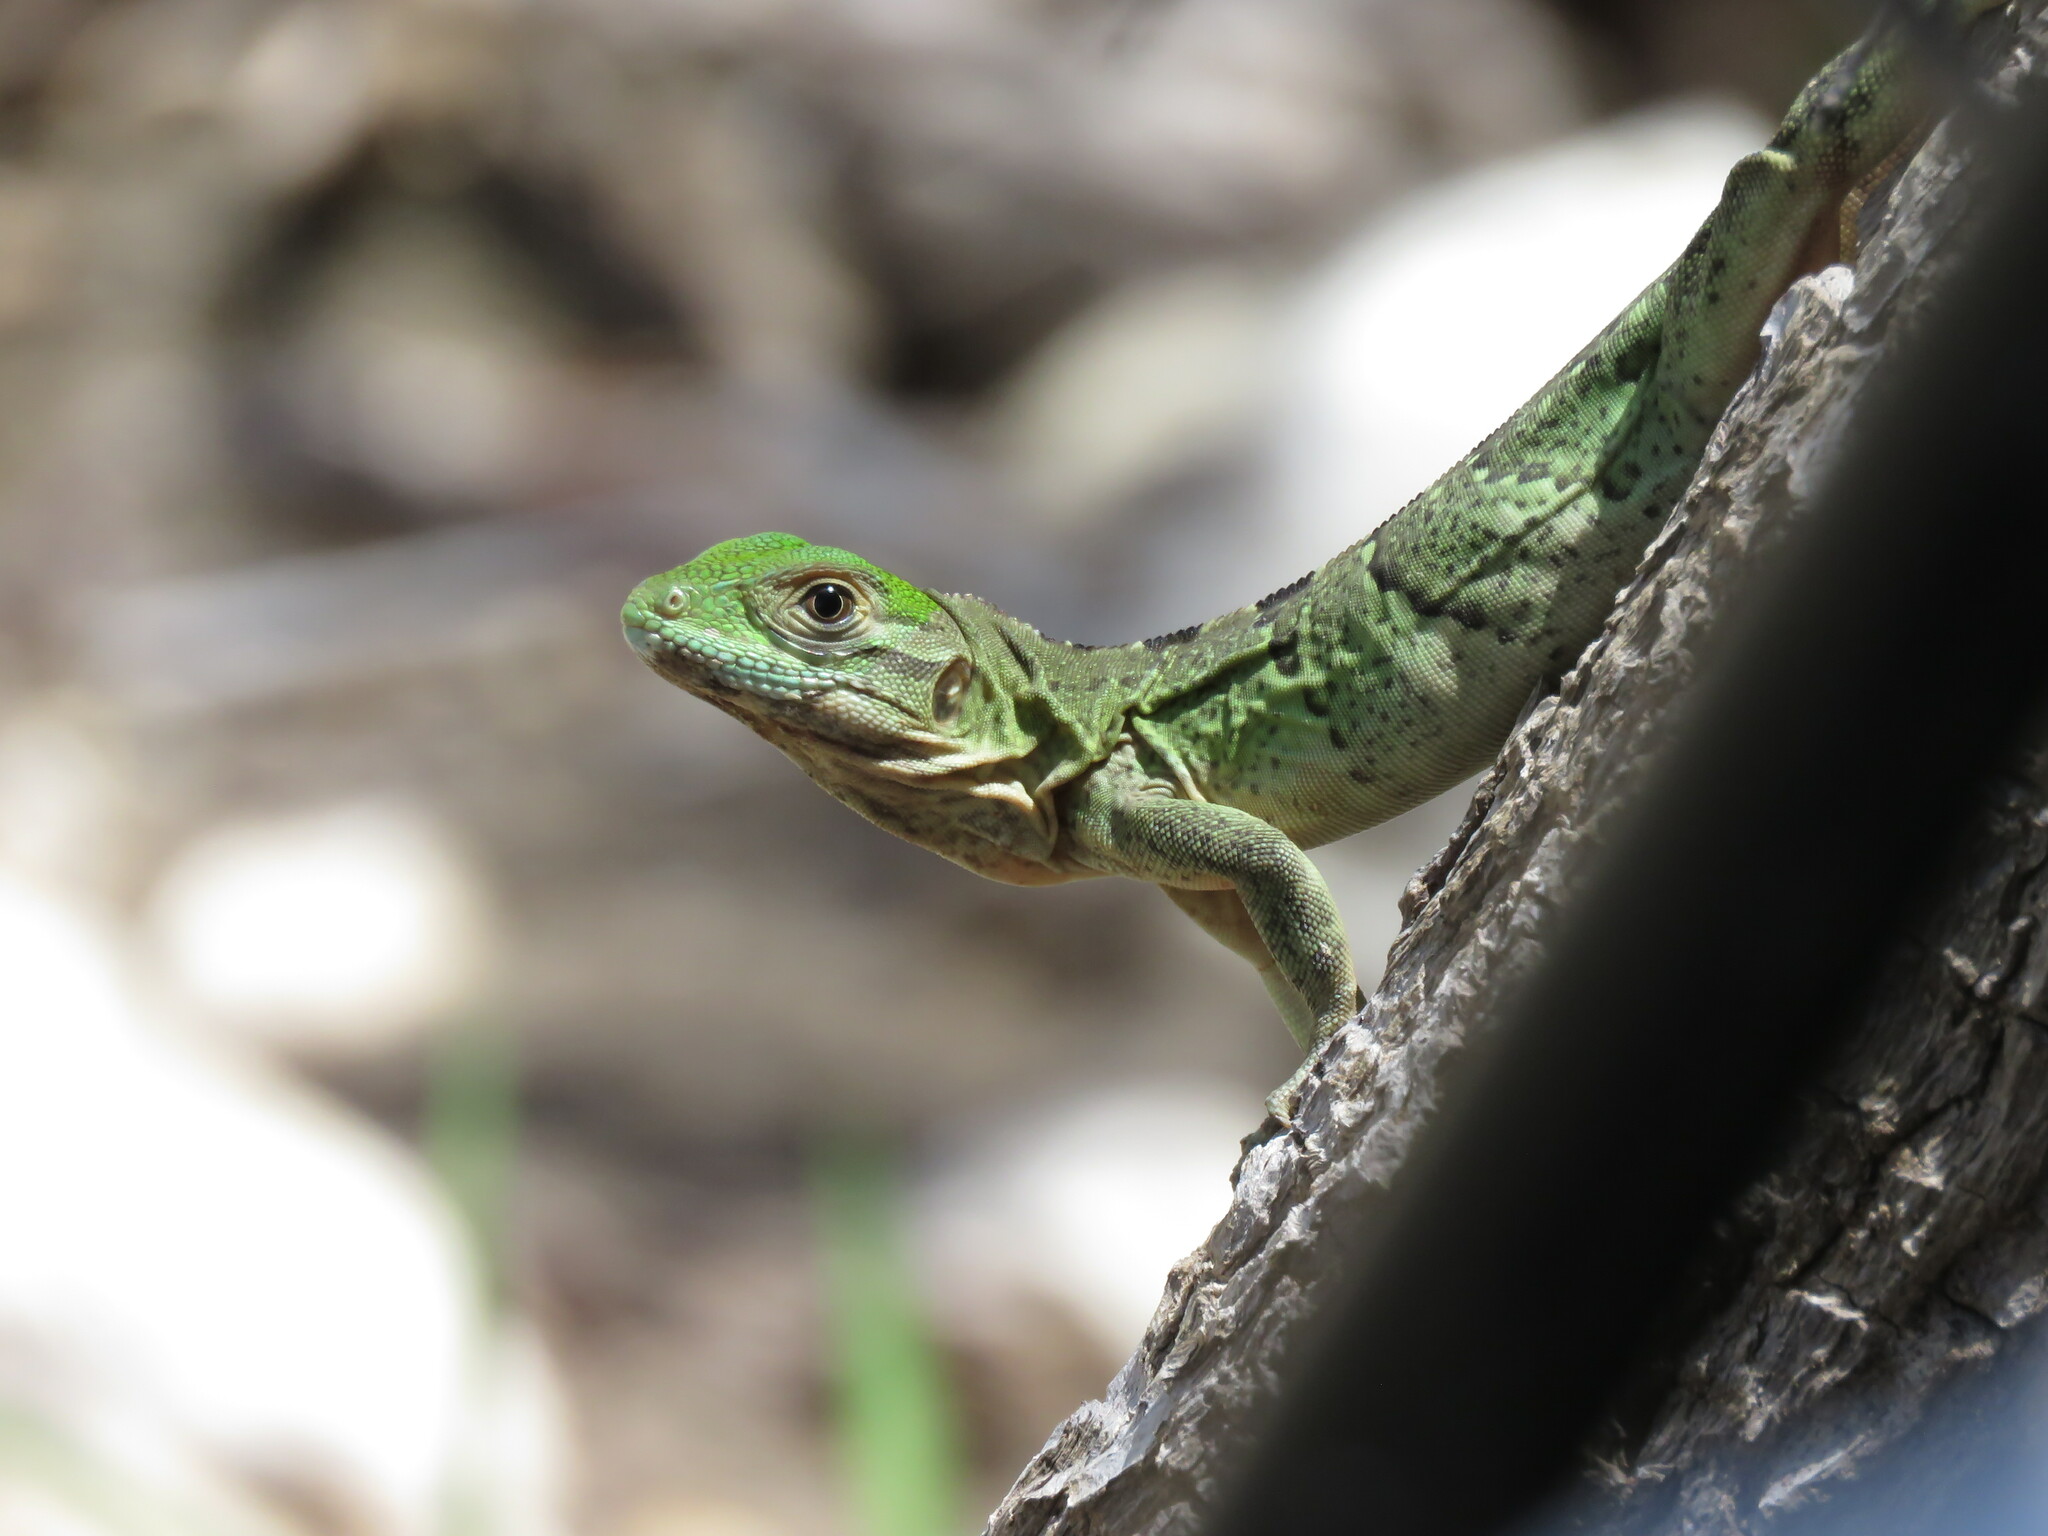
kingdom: Animalia
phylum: Chordata
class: Squamata
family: Iguanidae
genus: Ctenosaura
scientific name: Ctenosaura similis
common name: Black spiny-tailed iguana
